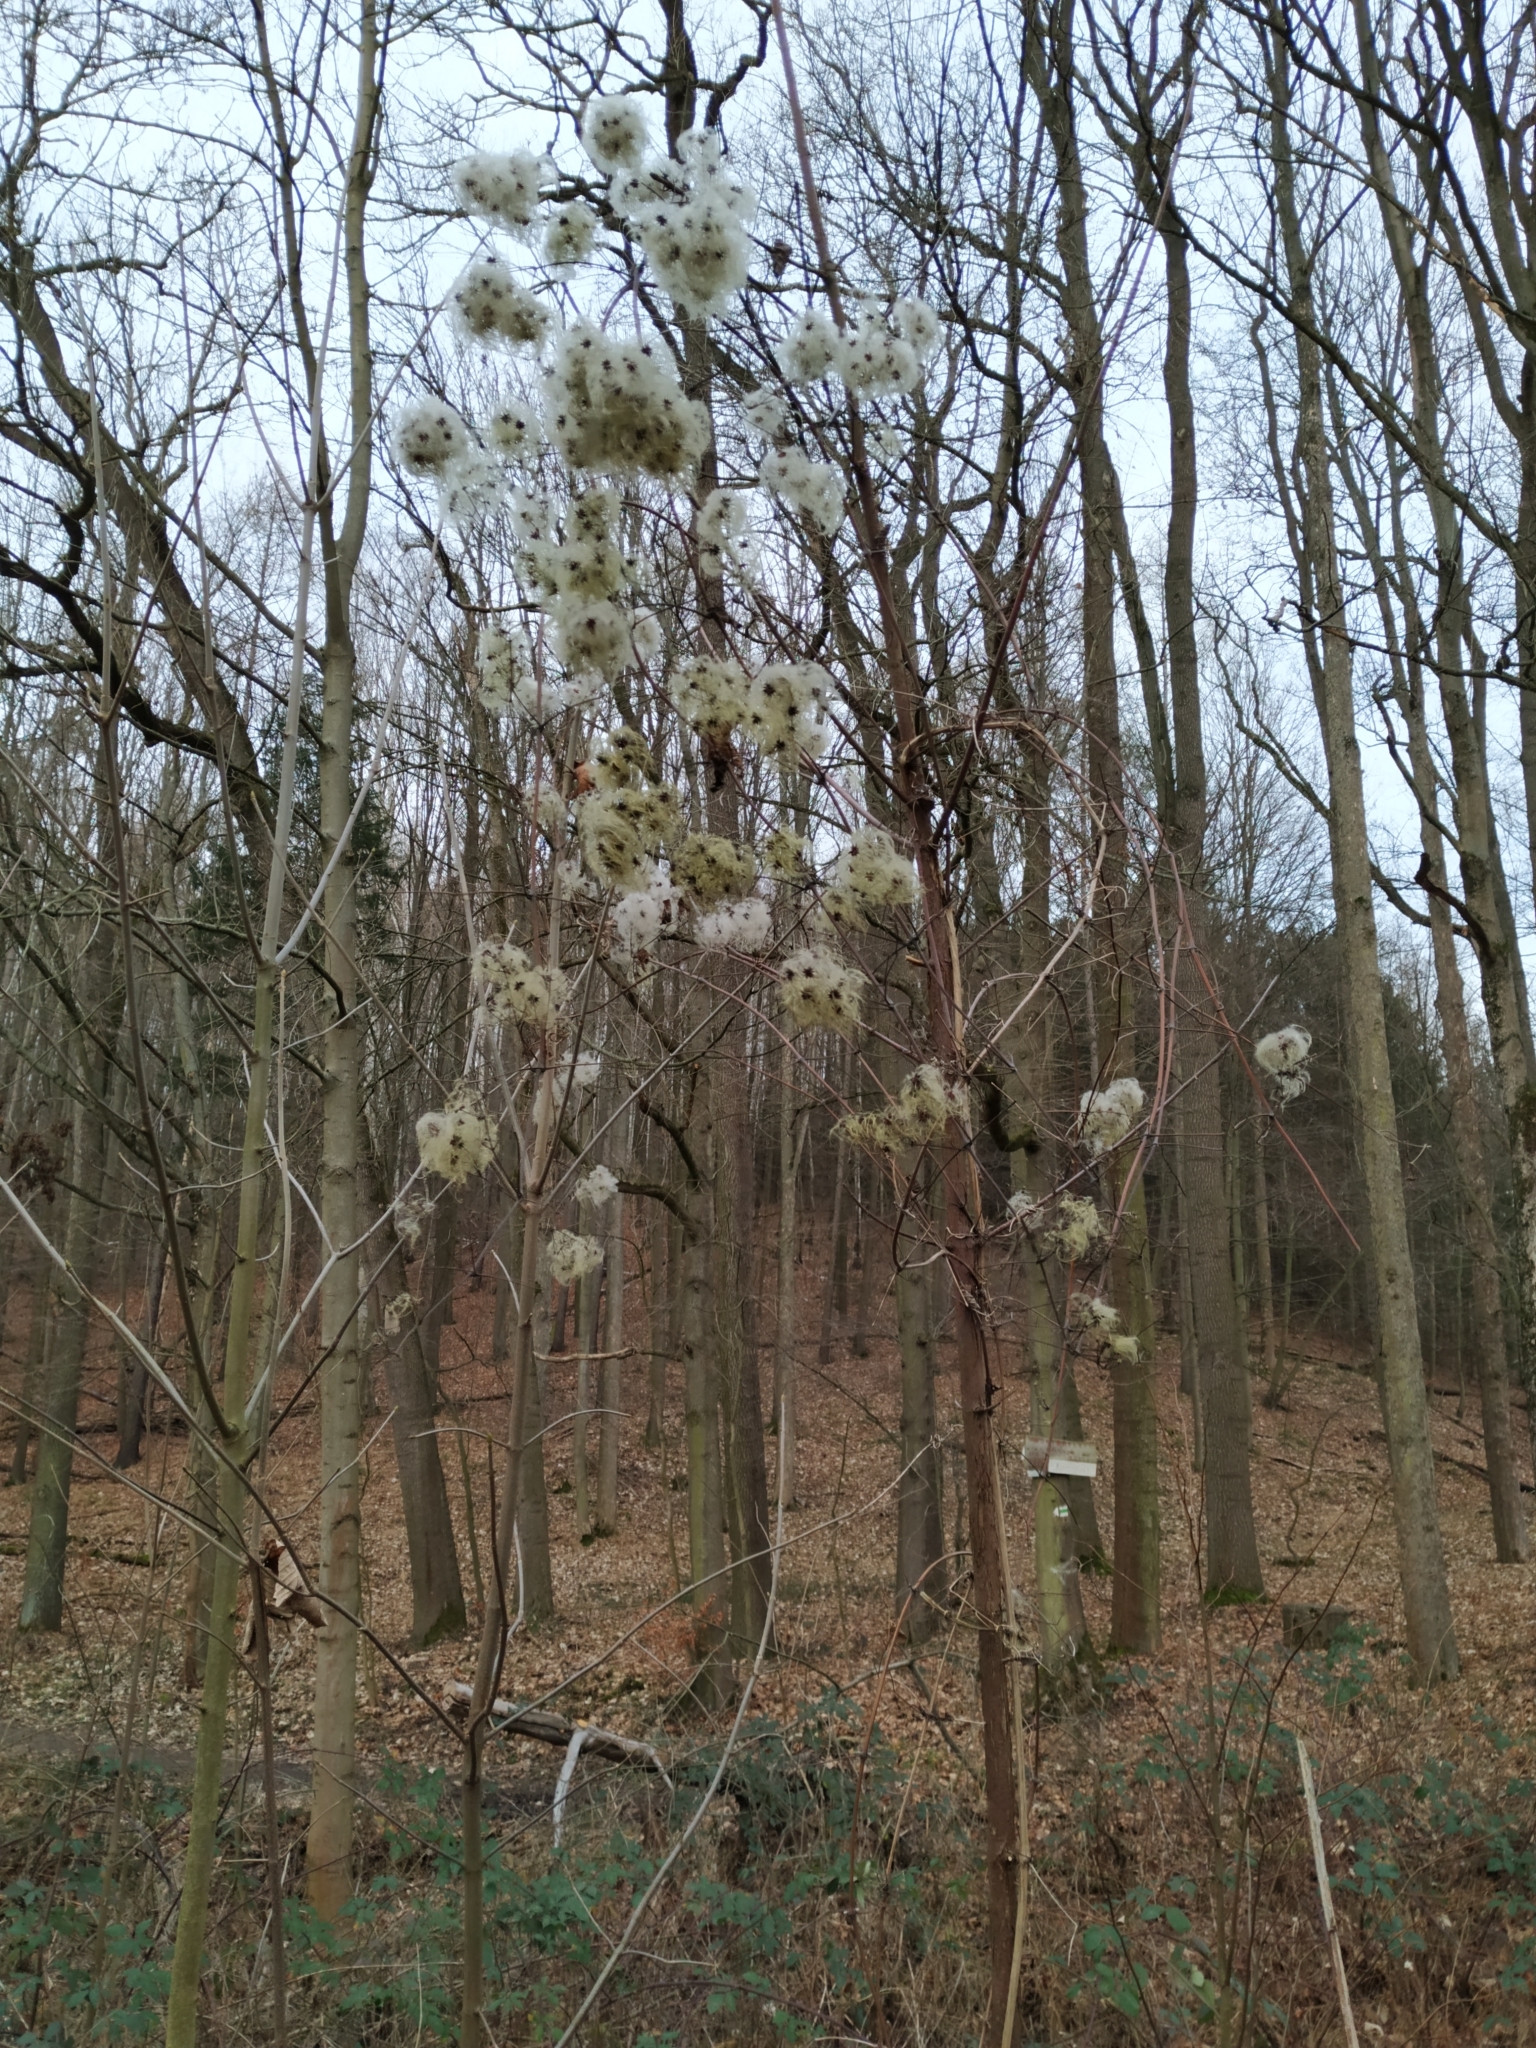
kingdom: Plantae
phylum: Tracheophyta
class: Magnoliopsida
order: Ranunculales
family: Ranunculaceae
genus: Clematis
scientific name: Clematis vitalba
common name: Evergreen clematis
